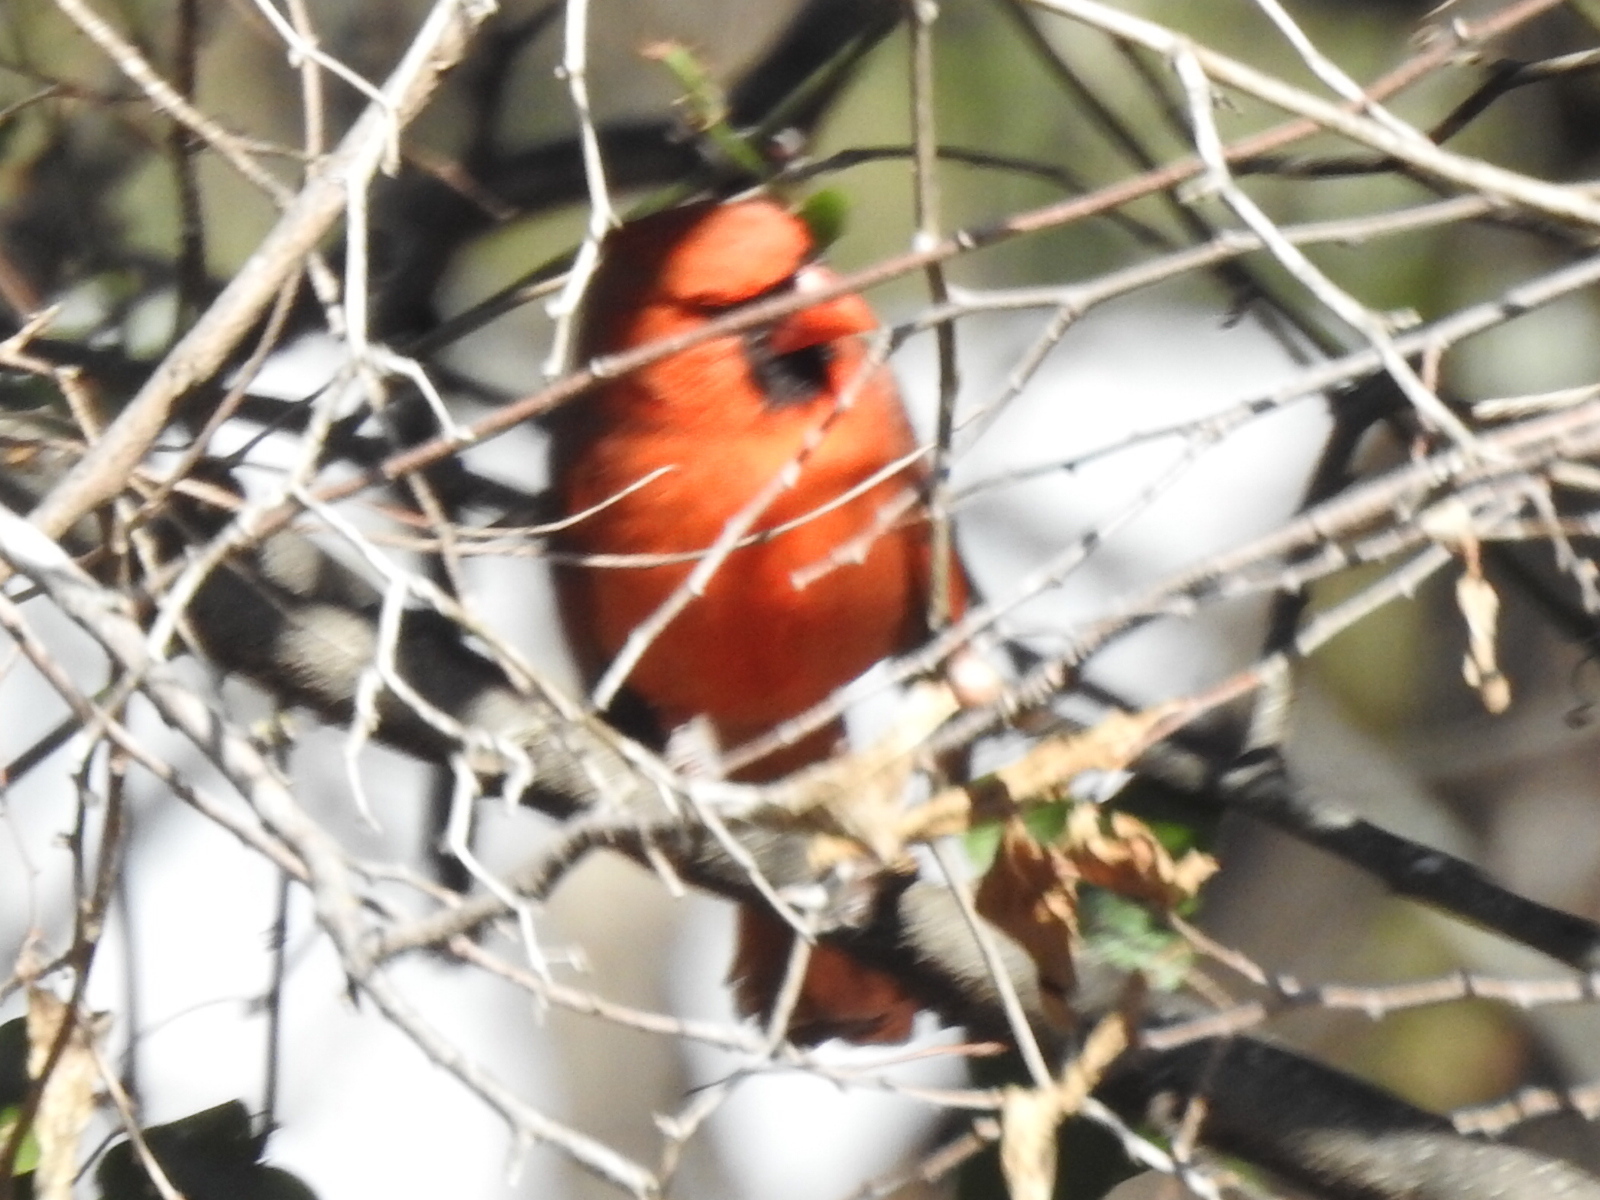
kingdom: Animalia
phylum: Chordata
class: Aves
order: Passeriformes
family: Cardinalidae
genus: Cardinalis
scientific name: Cardinalis cardinalis
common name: Northern cardinal
